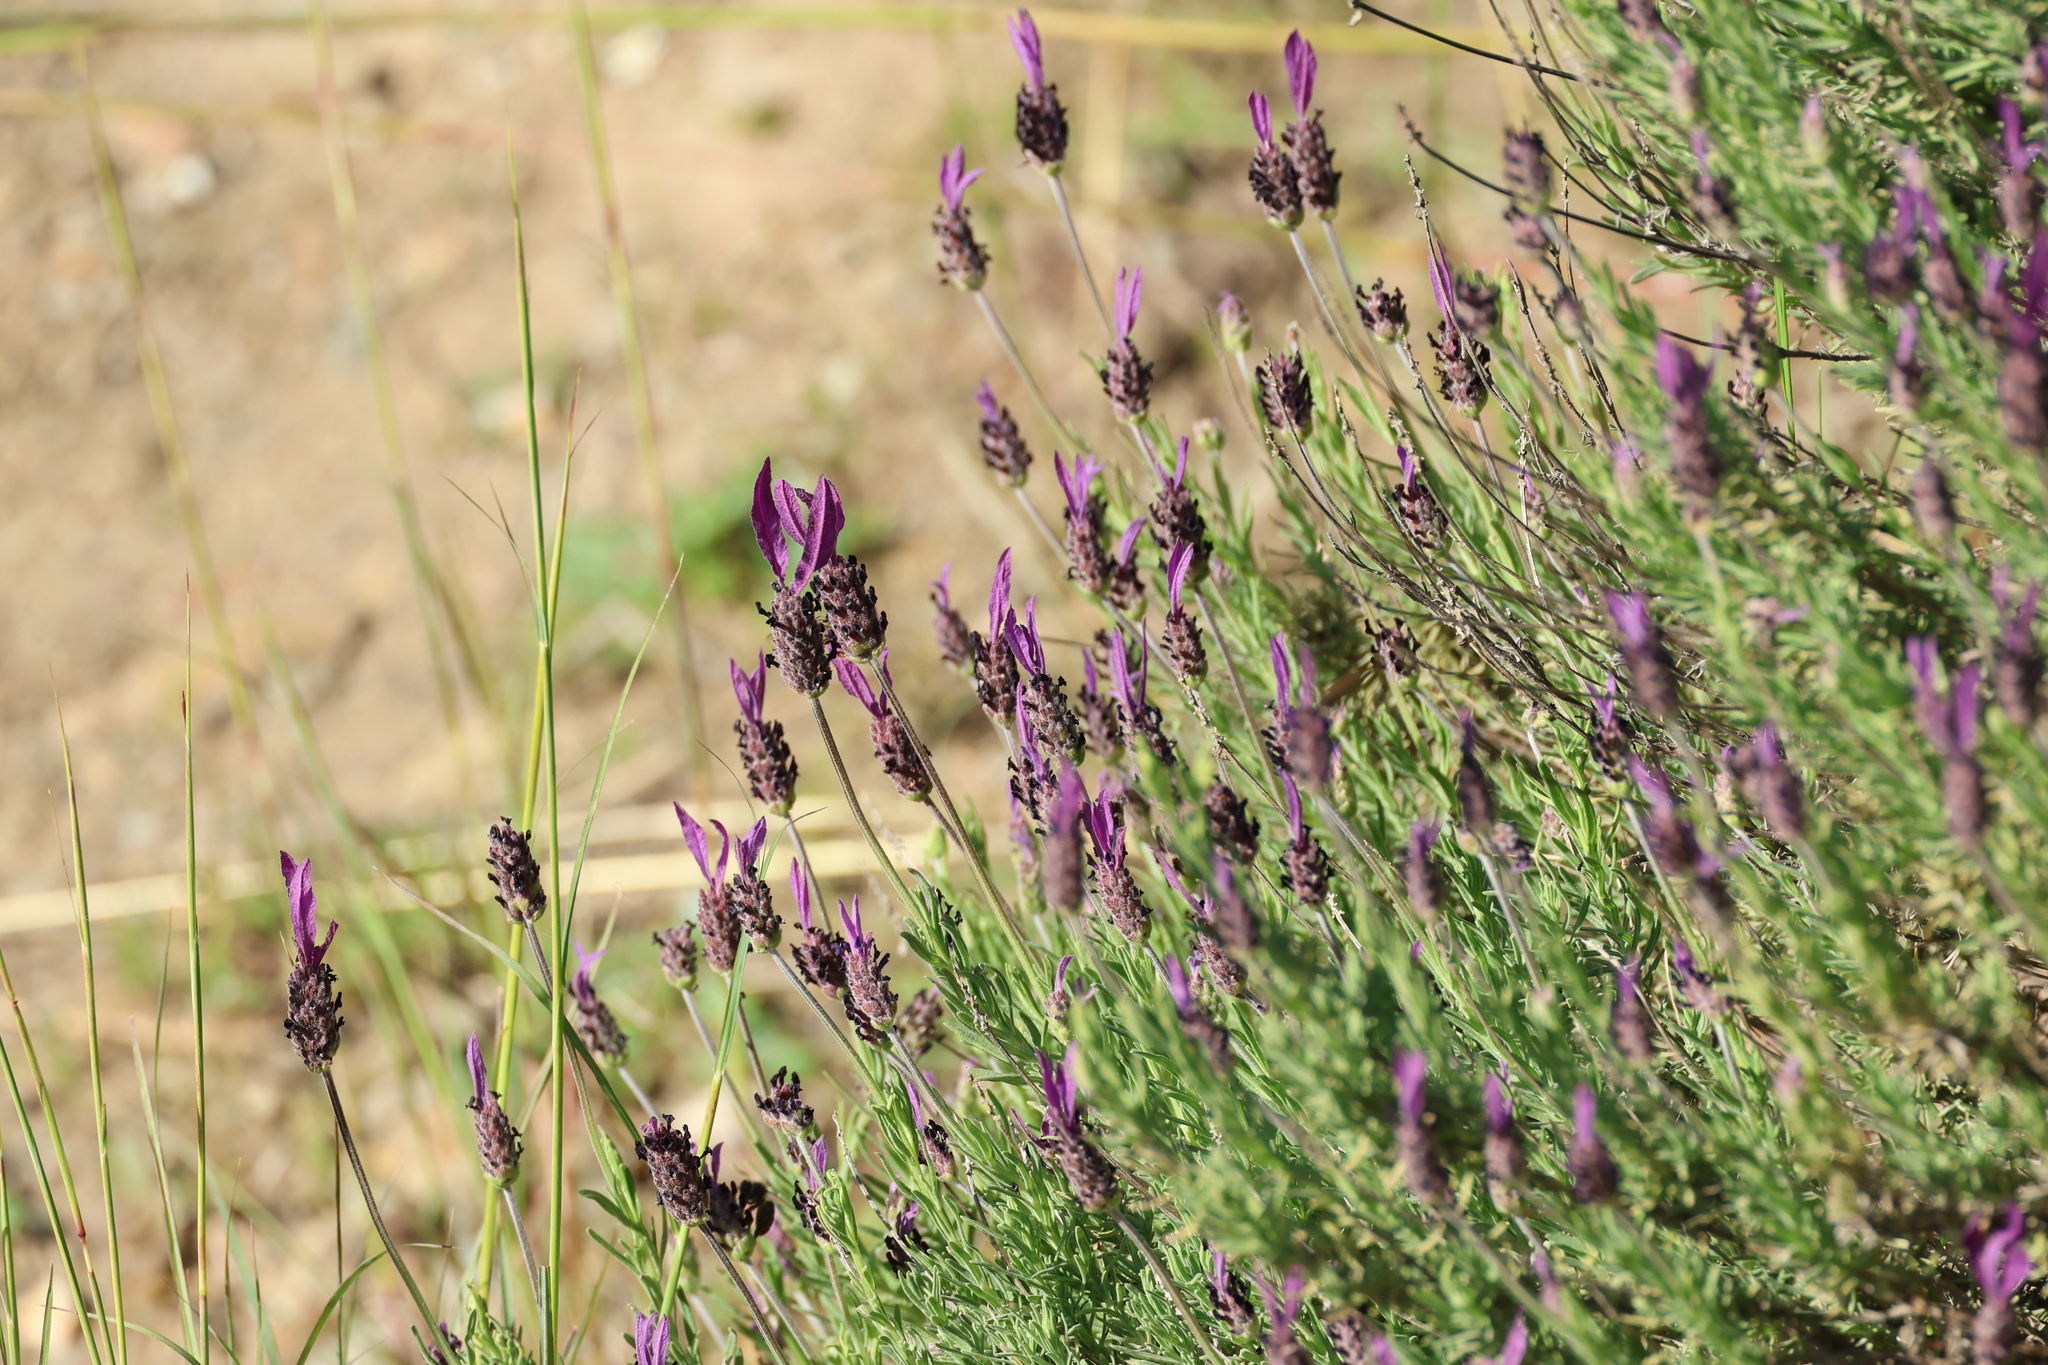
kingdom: Plantae
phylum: Tracheophyta
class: Magnoliopsida
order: Lamiales
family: Lamiaceae
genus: Lavandula
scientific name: Lavandula pedunculata
